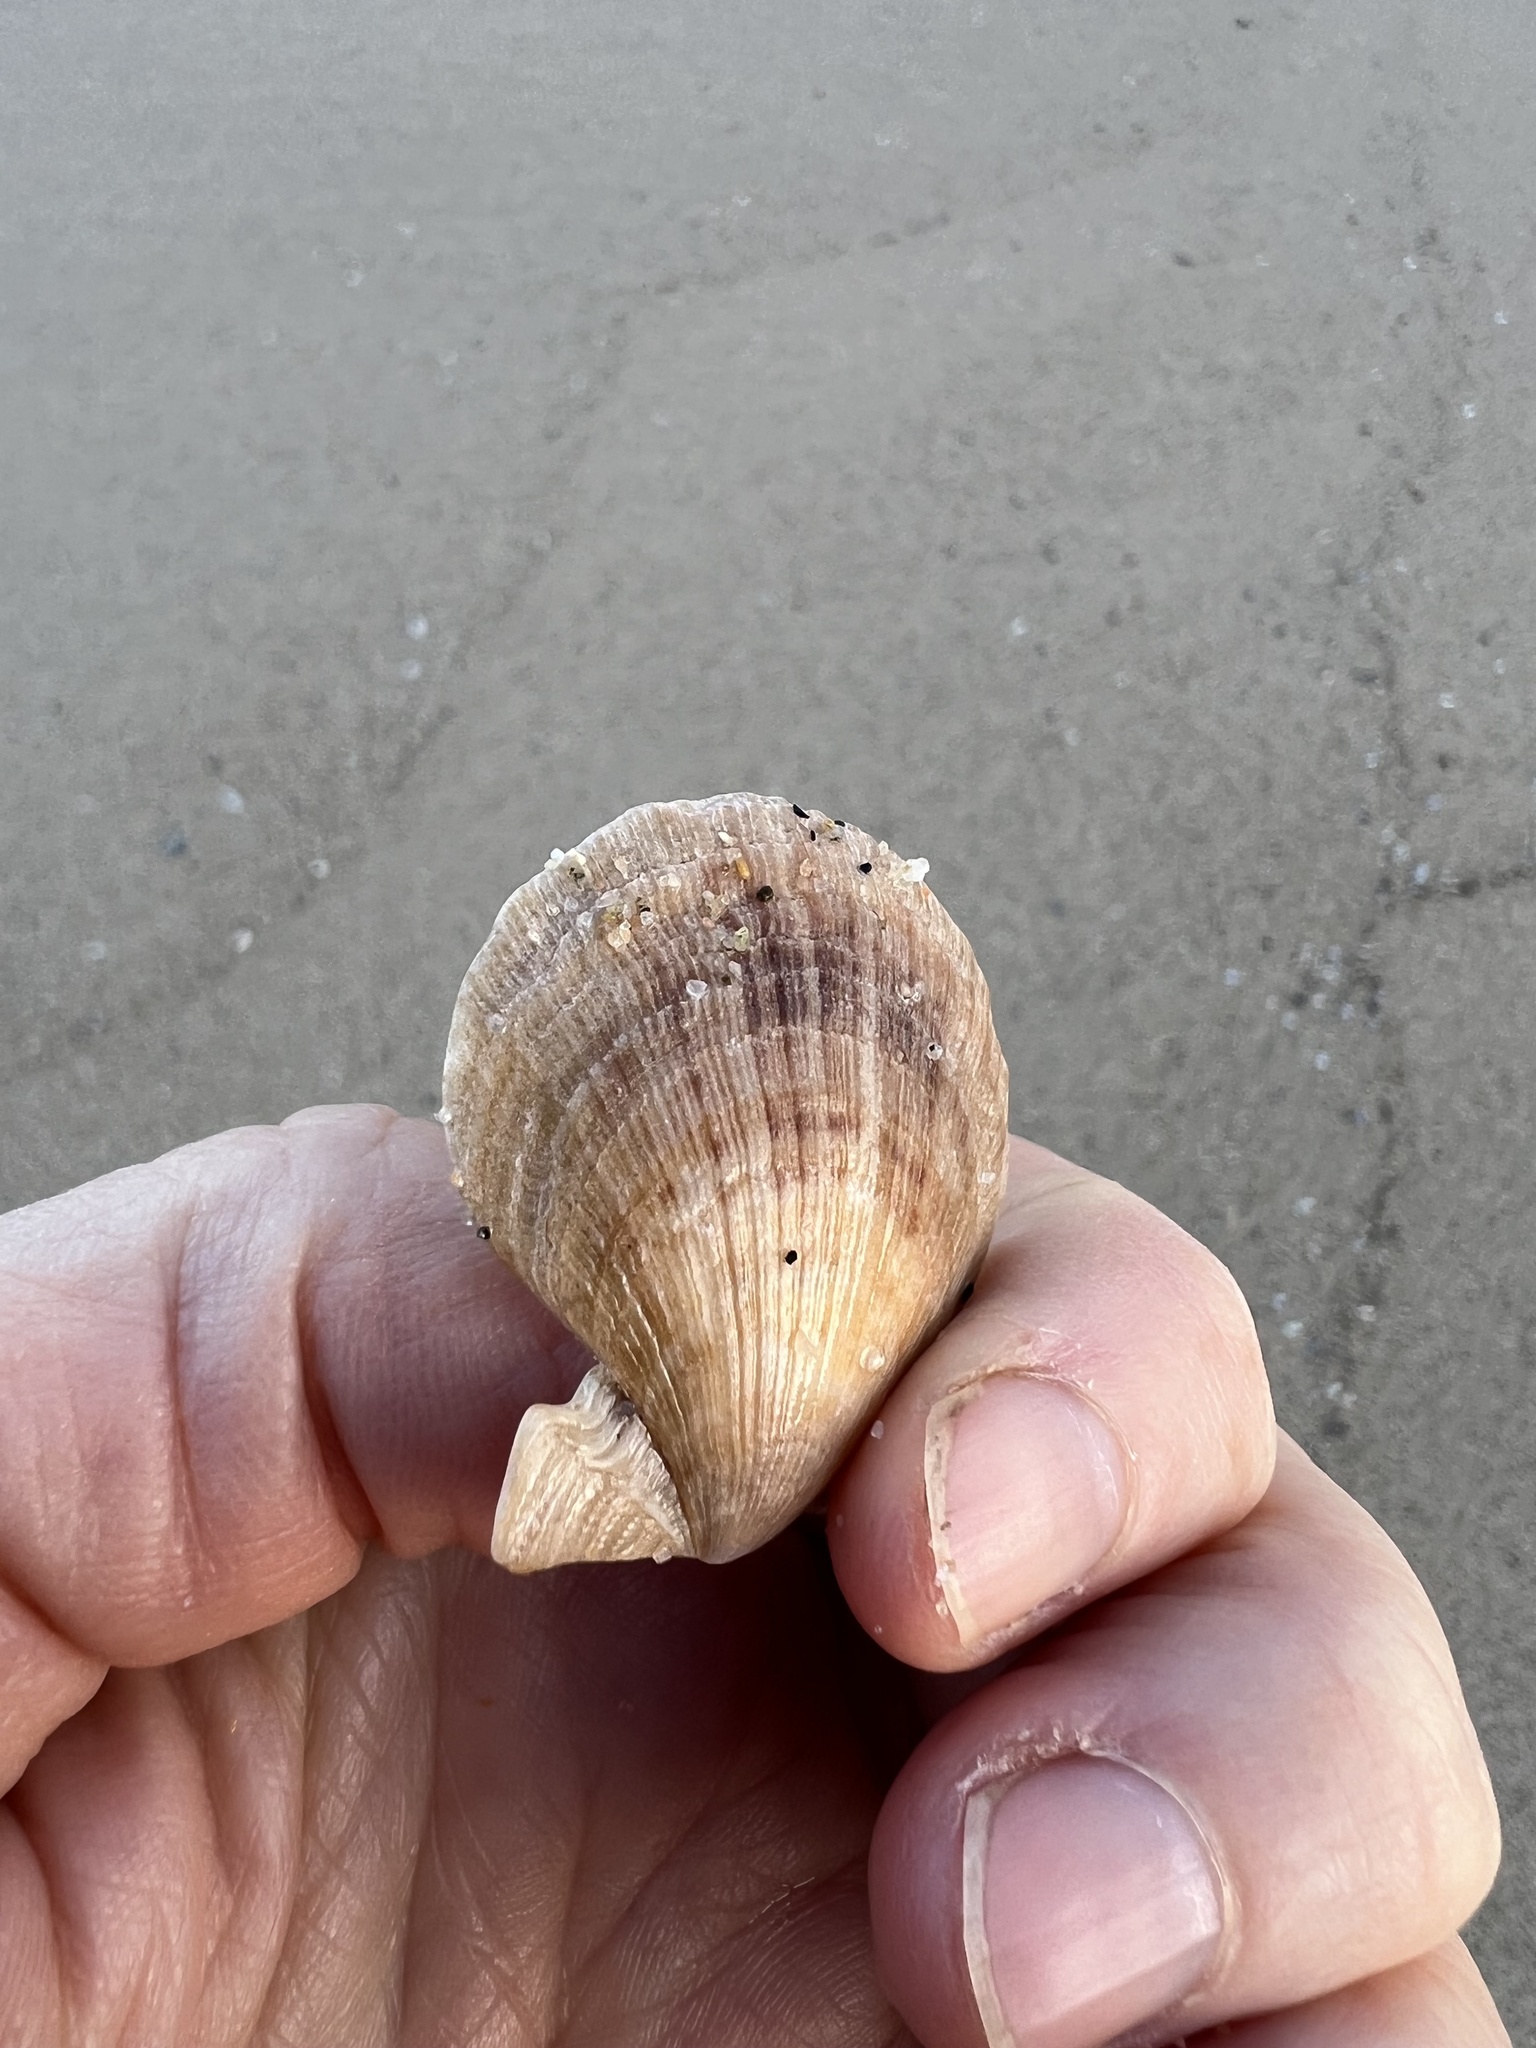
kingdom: Animalia
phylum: Mollusca
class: Bivalvia
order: Pectinida
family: Pectinidae
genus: Crassadoma
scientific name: Crassadoma gigantea
